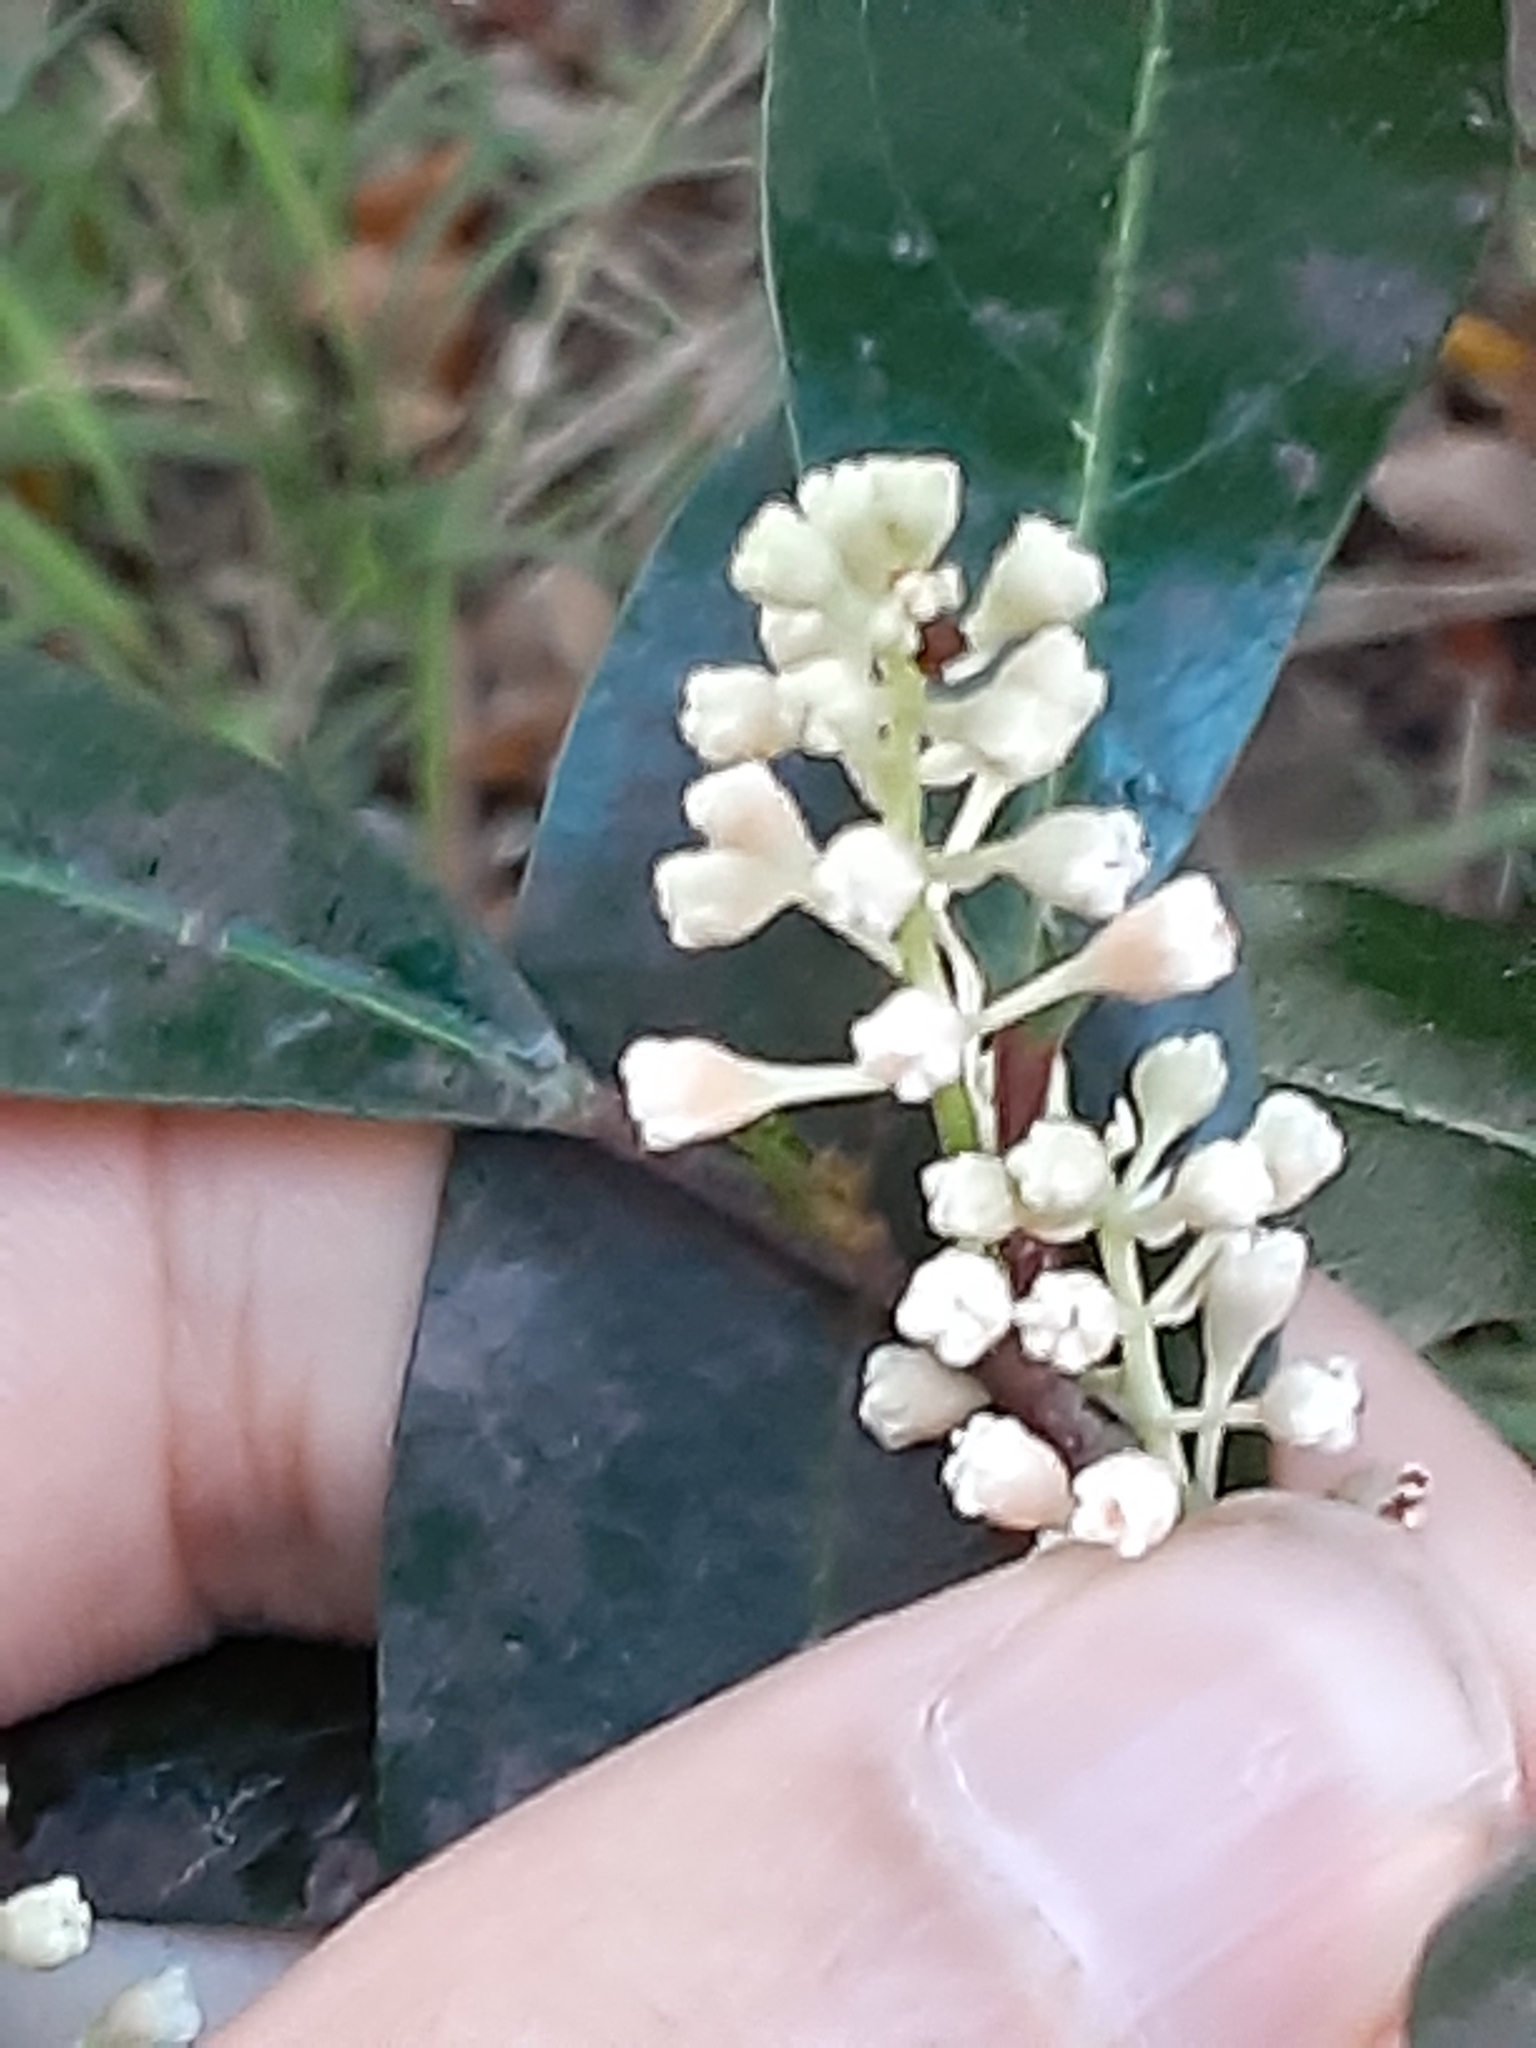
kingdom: Plantae
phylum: Tracheophyta
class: Magnoliopsida
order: Rosales
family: Rosaceae
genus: Prunus
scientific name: Prunus caroliniana
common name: Carolina laurel cherry
